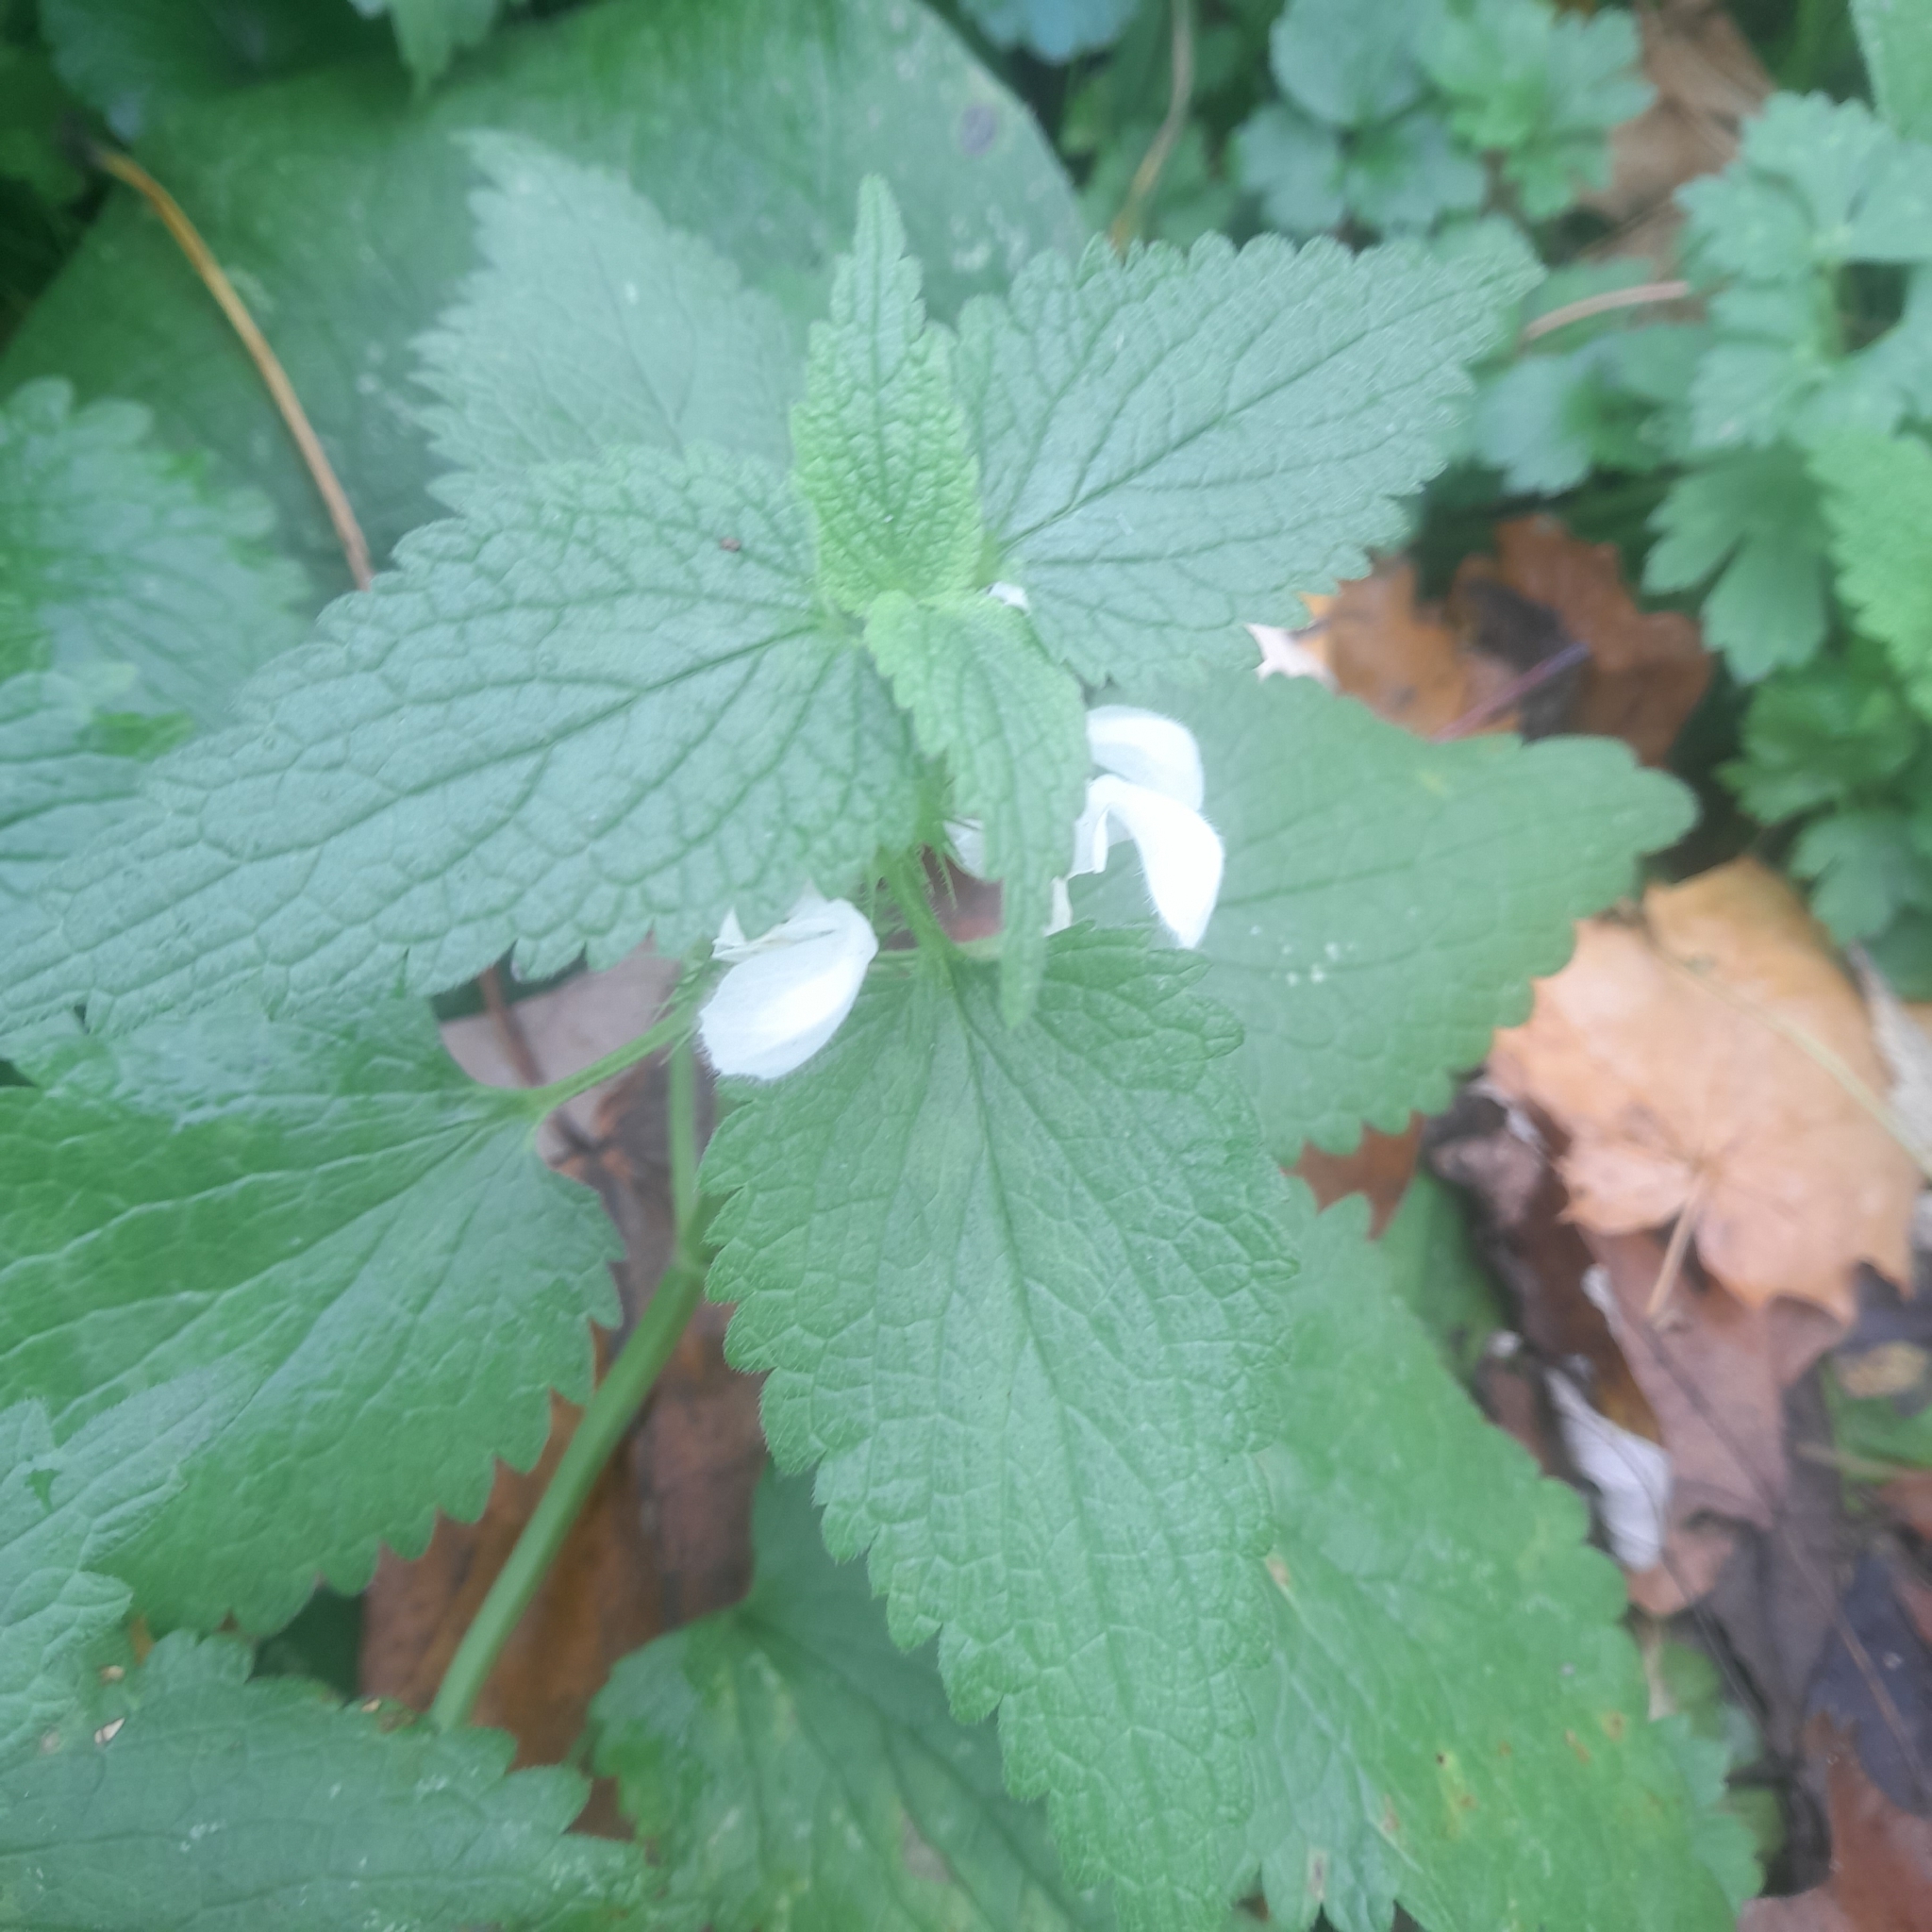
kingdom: Plantae
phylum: Tracheophyta
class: Magnoliopsida
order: Lamiales
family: Lamiaceae
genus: Lamium
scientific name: Lamium album
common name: White dead-nettle
